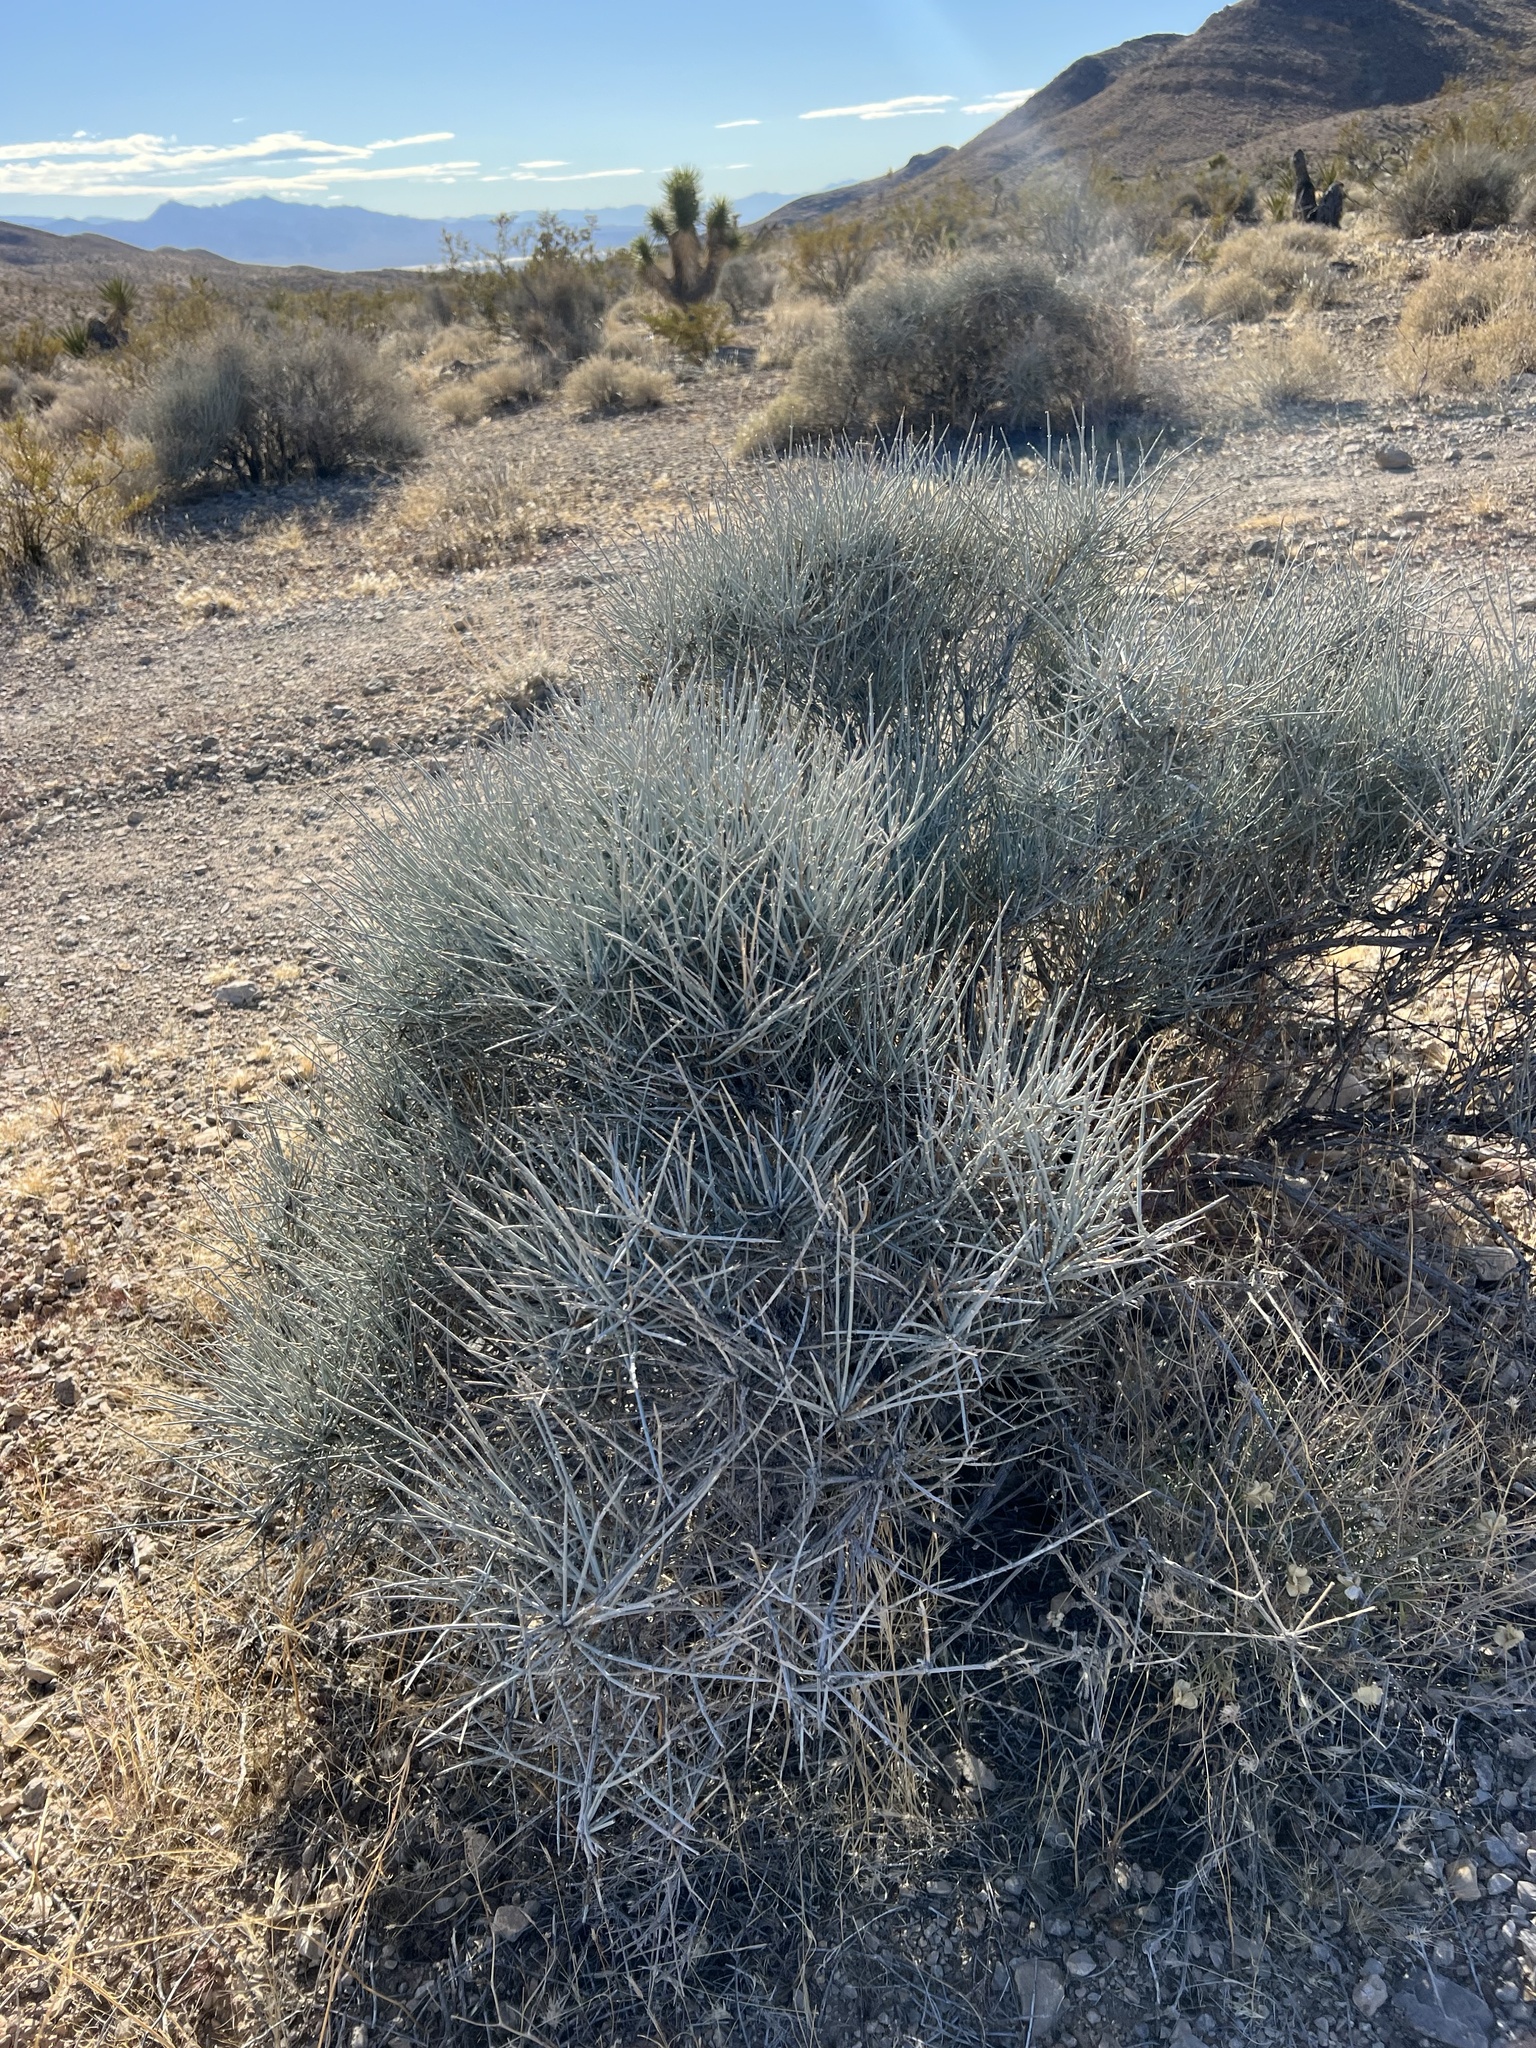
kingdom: Plantae
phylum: Tracheophyta
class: Gnetopsida
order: Ephedrales
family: Ephedraceae
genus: Ephedra
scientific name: Ephedra nevadensis
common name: Gray ephedra
